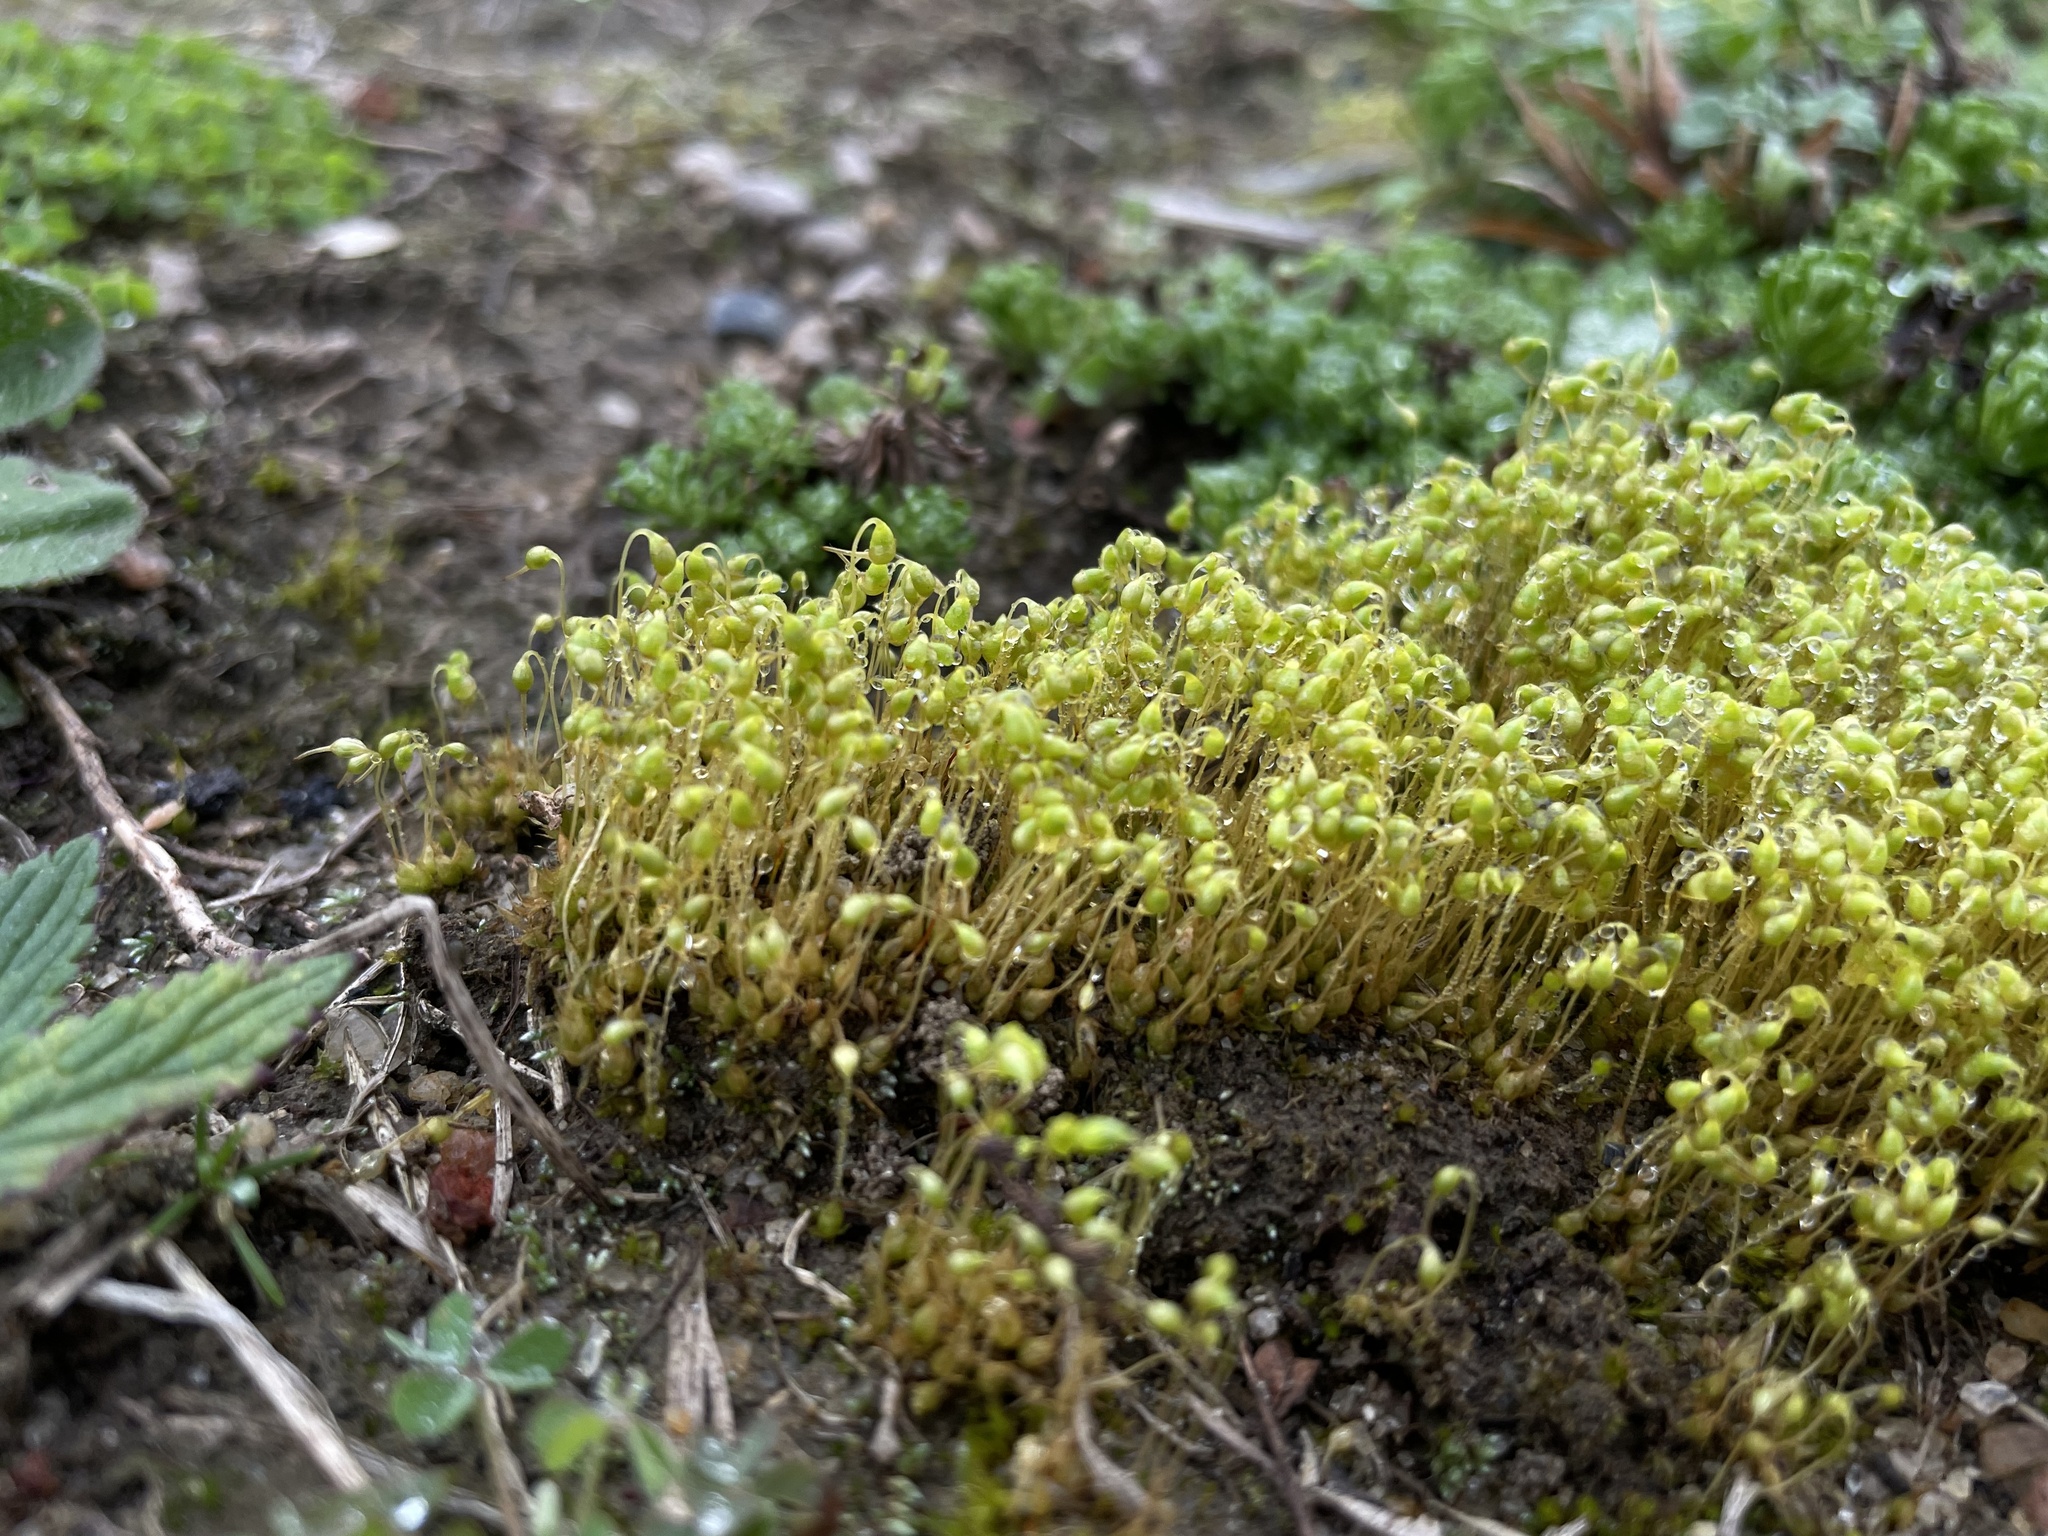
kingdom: Plantae
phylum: Bryophyta
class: Bryopsida
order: Funariales
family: Funariaceae
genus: Funaria
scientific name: Funaria hygrometrica
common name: Common cord moss
